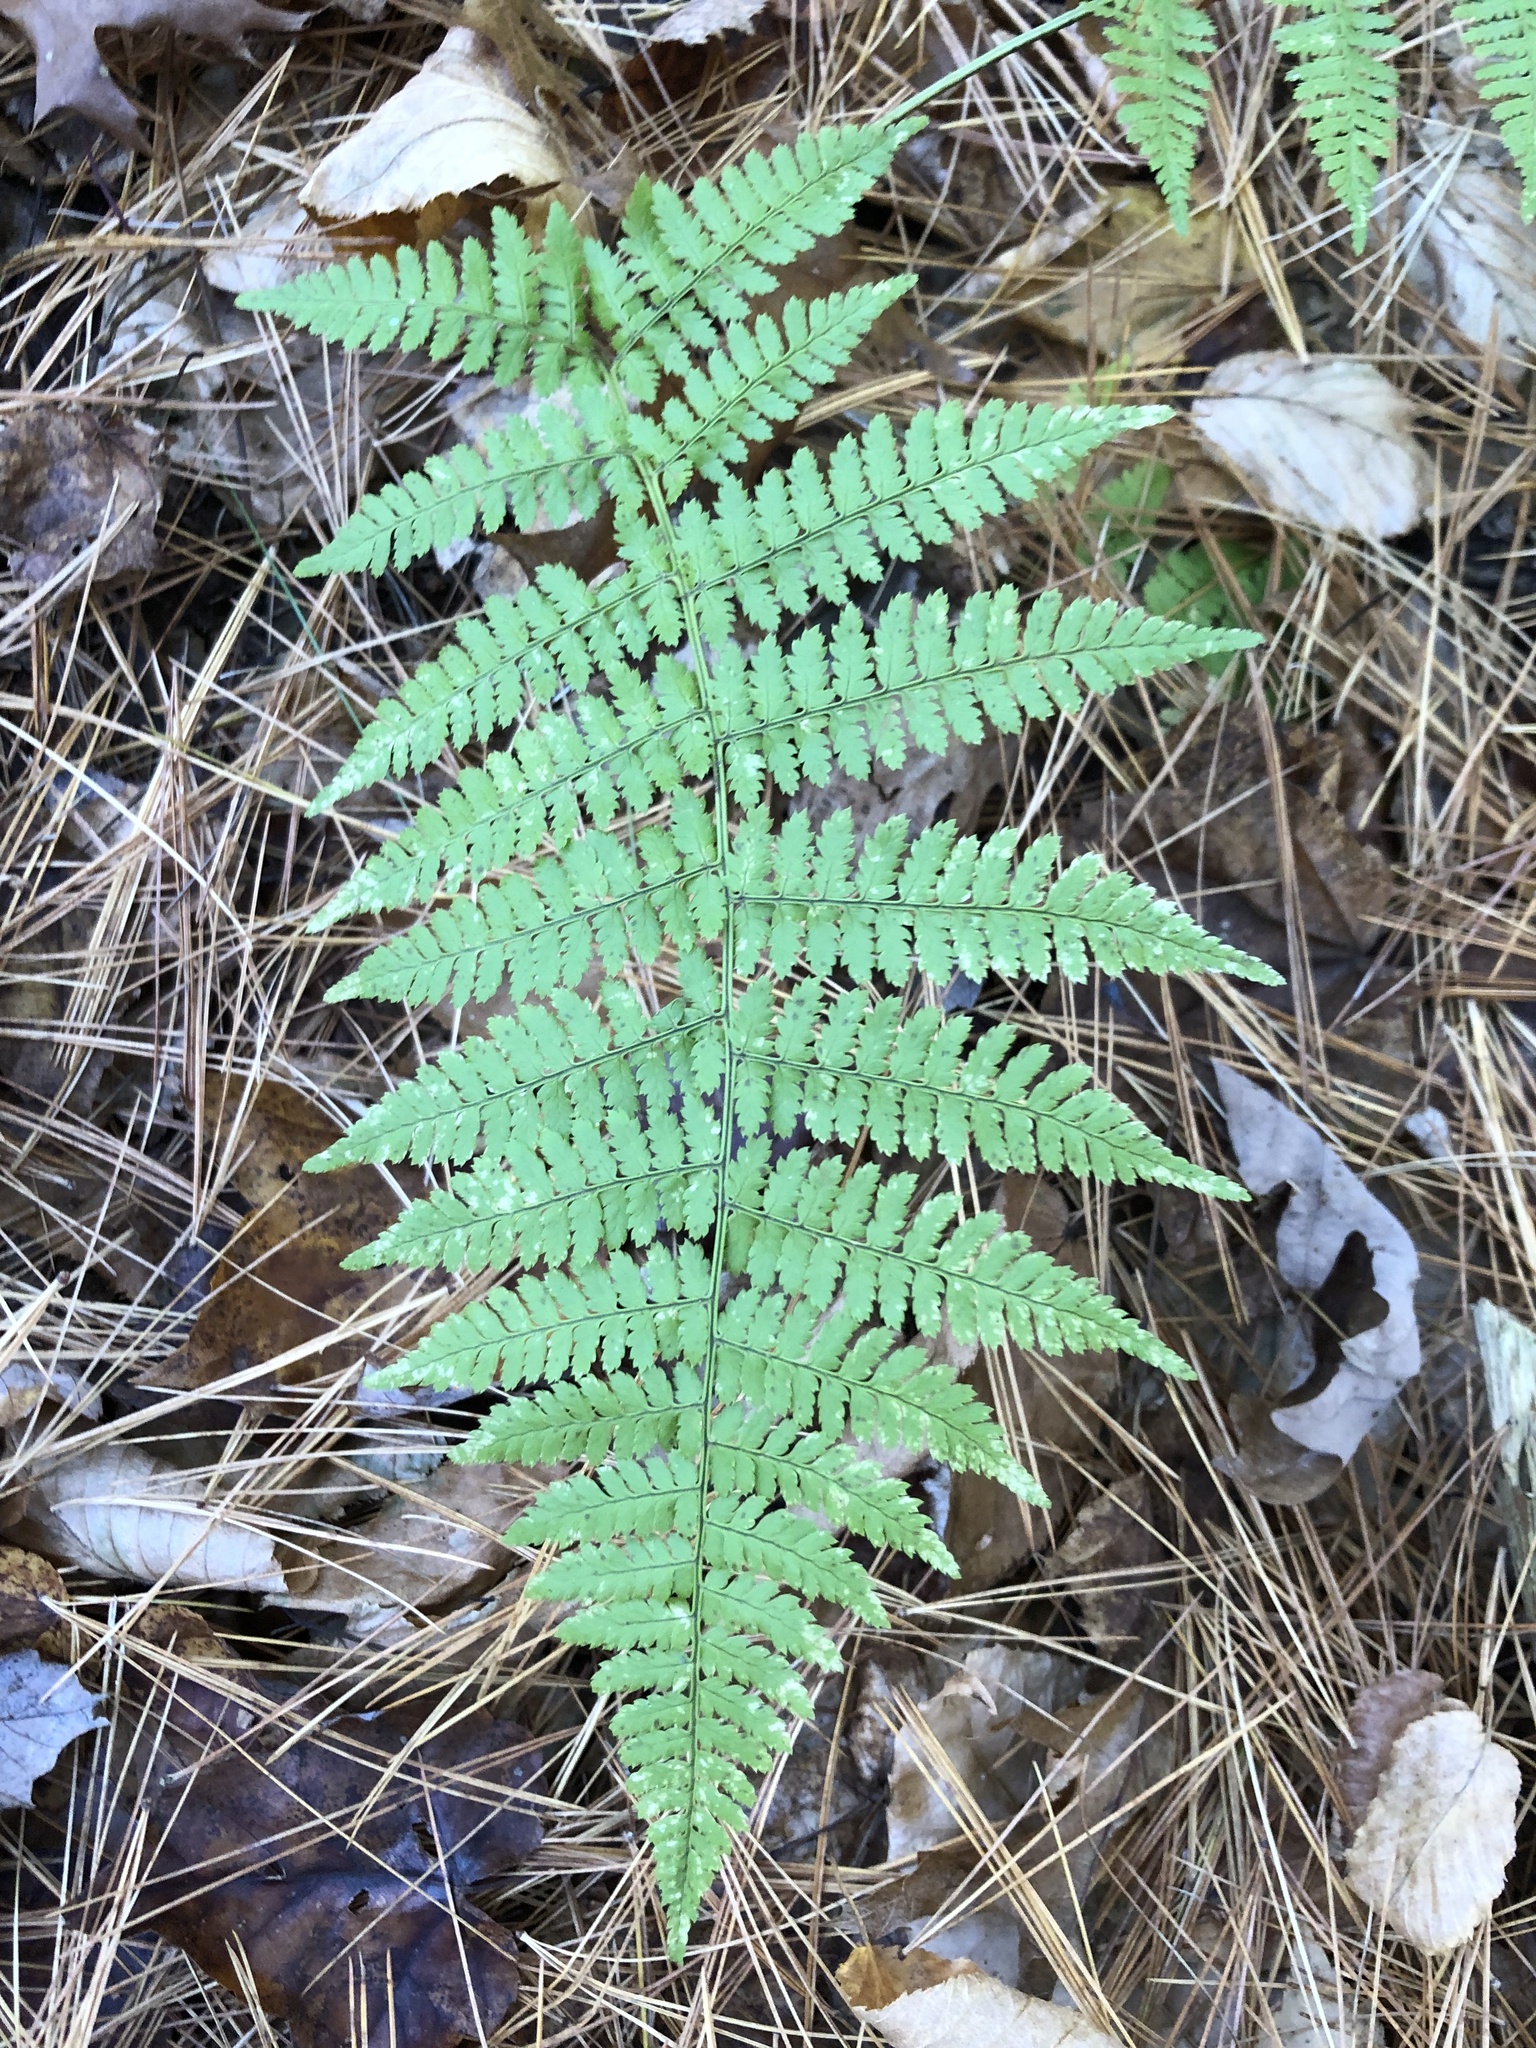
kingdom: Plantae
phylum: Tracheophyta
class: Polypodiopsida
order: Polypodiales
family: Dryopteridaceae
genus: Dryopteris
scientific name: Dryopteris intermedia
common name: Evergreen wood fern
